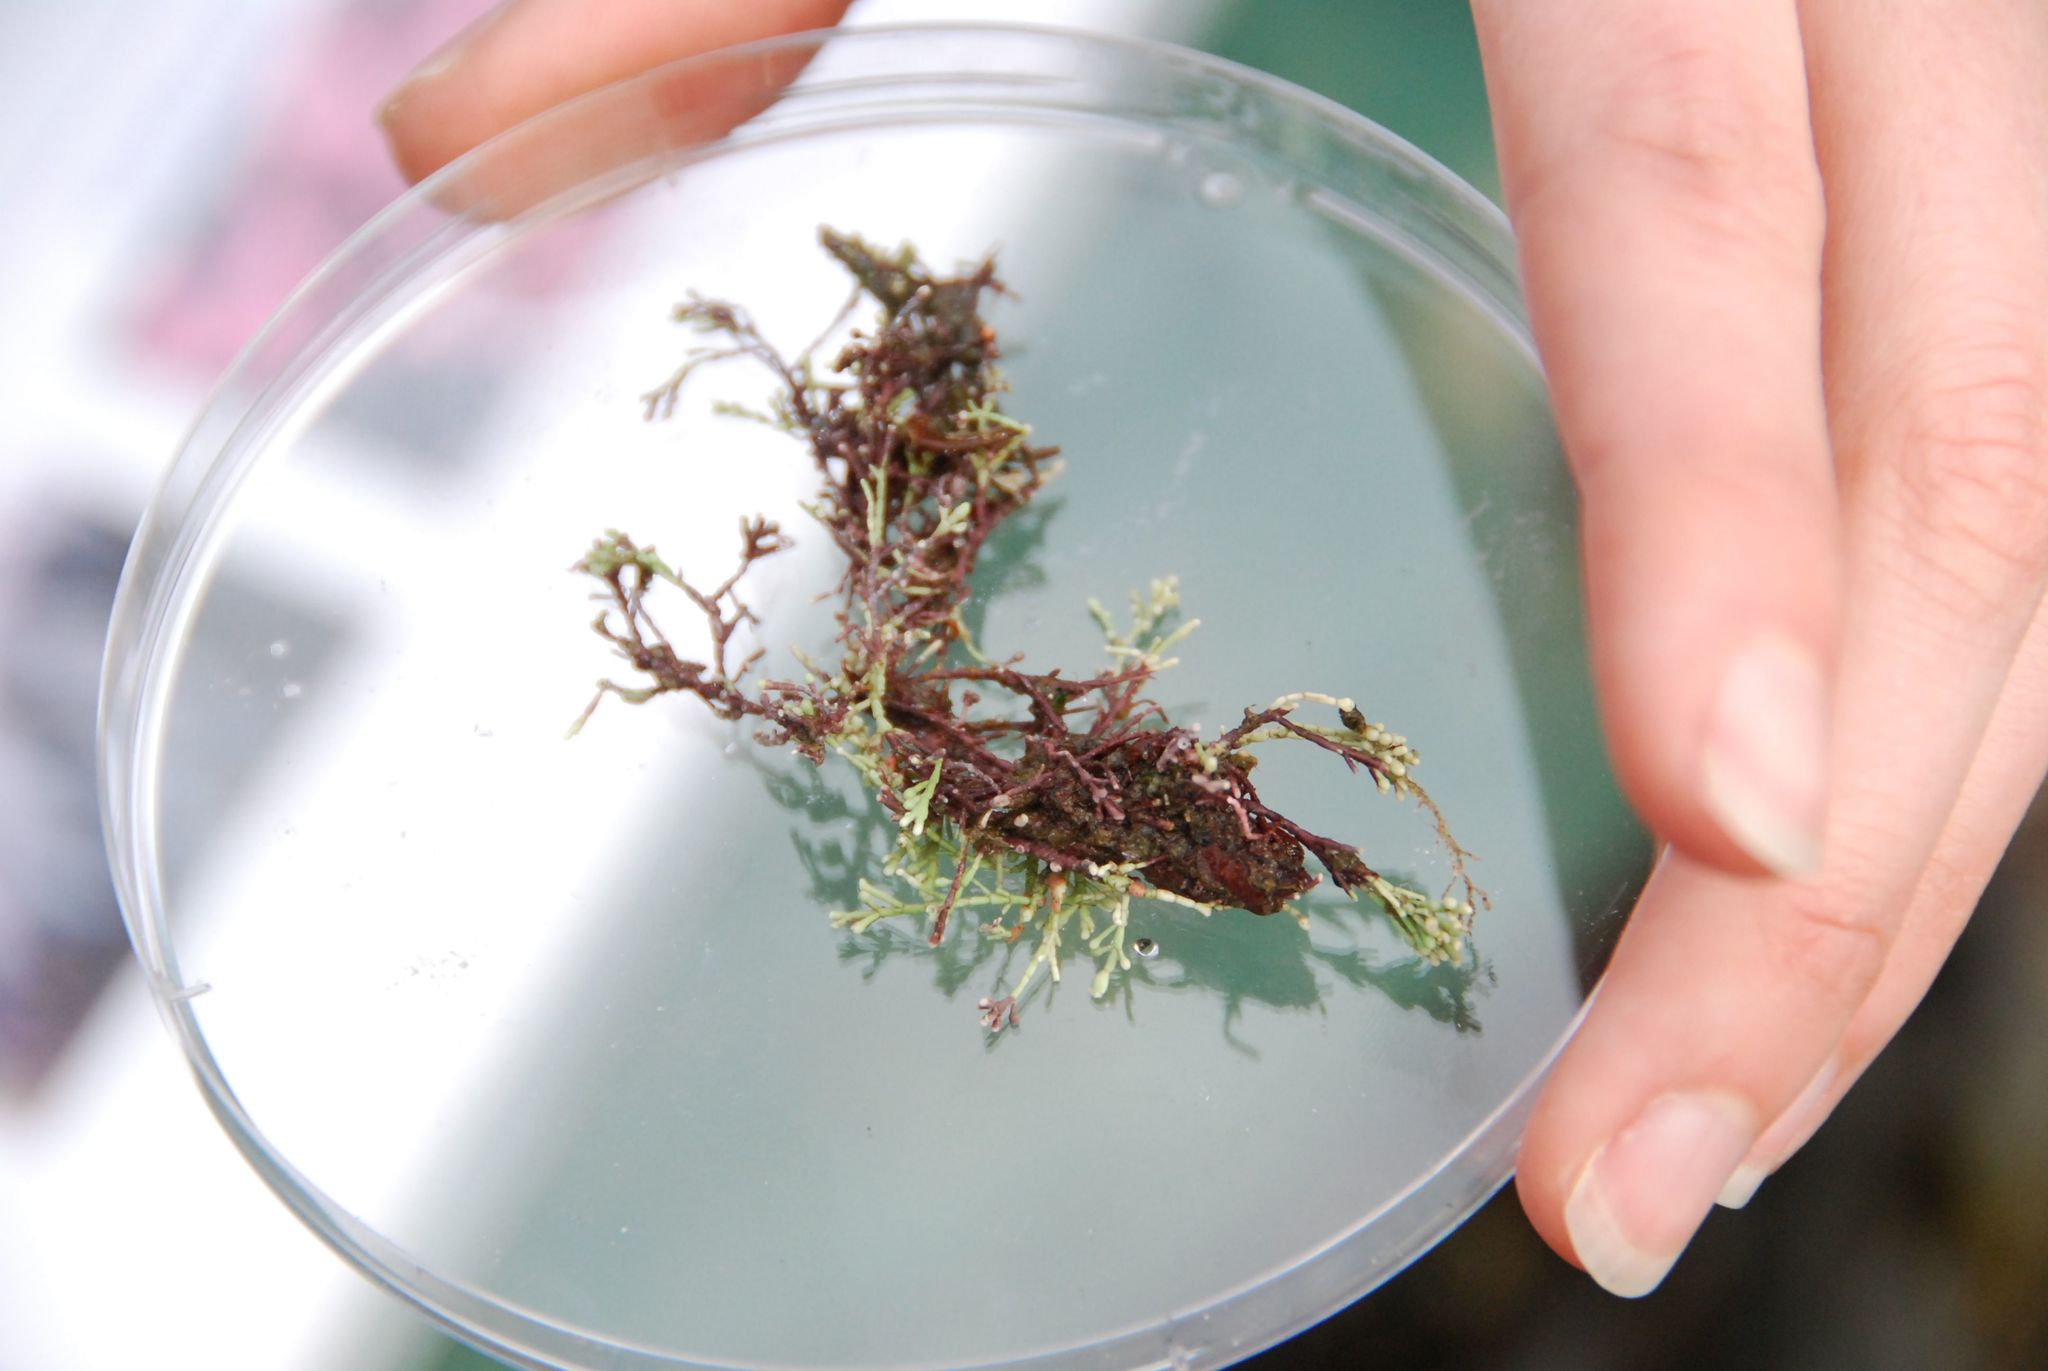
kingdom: Plantae
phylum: Rhodophyta
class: Florideophyceae
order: Corallinales
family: Corallinaceae
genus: Corallina
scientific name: Corallina officinalis
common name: Coral weed
